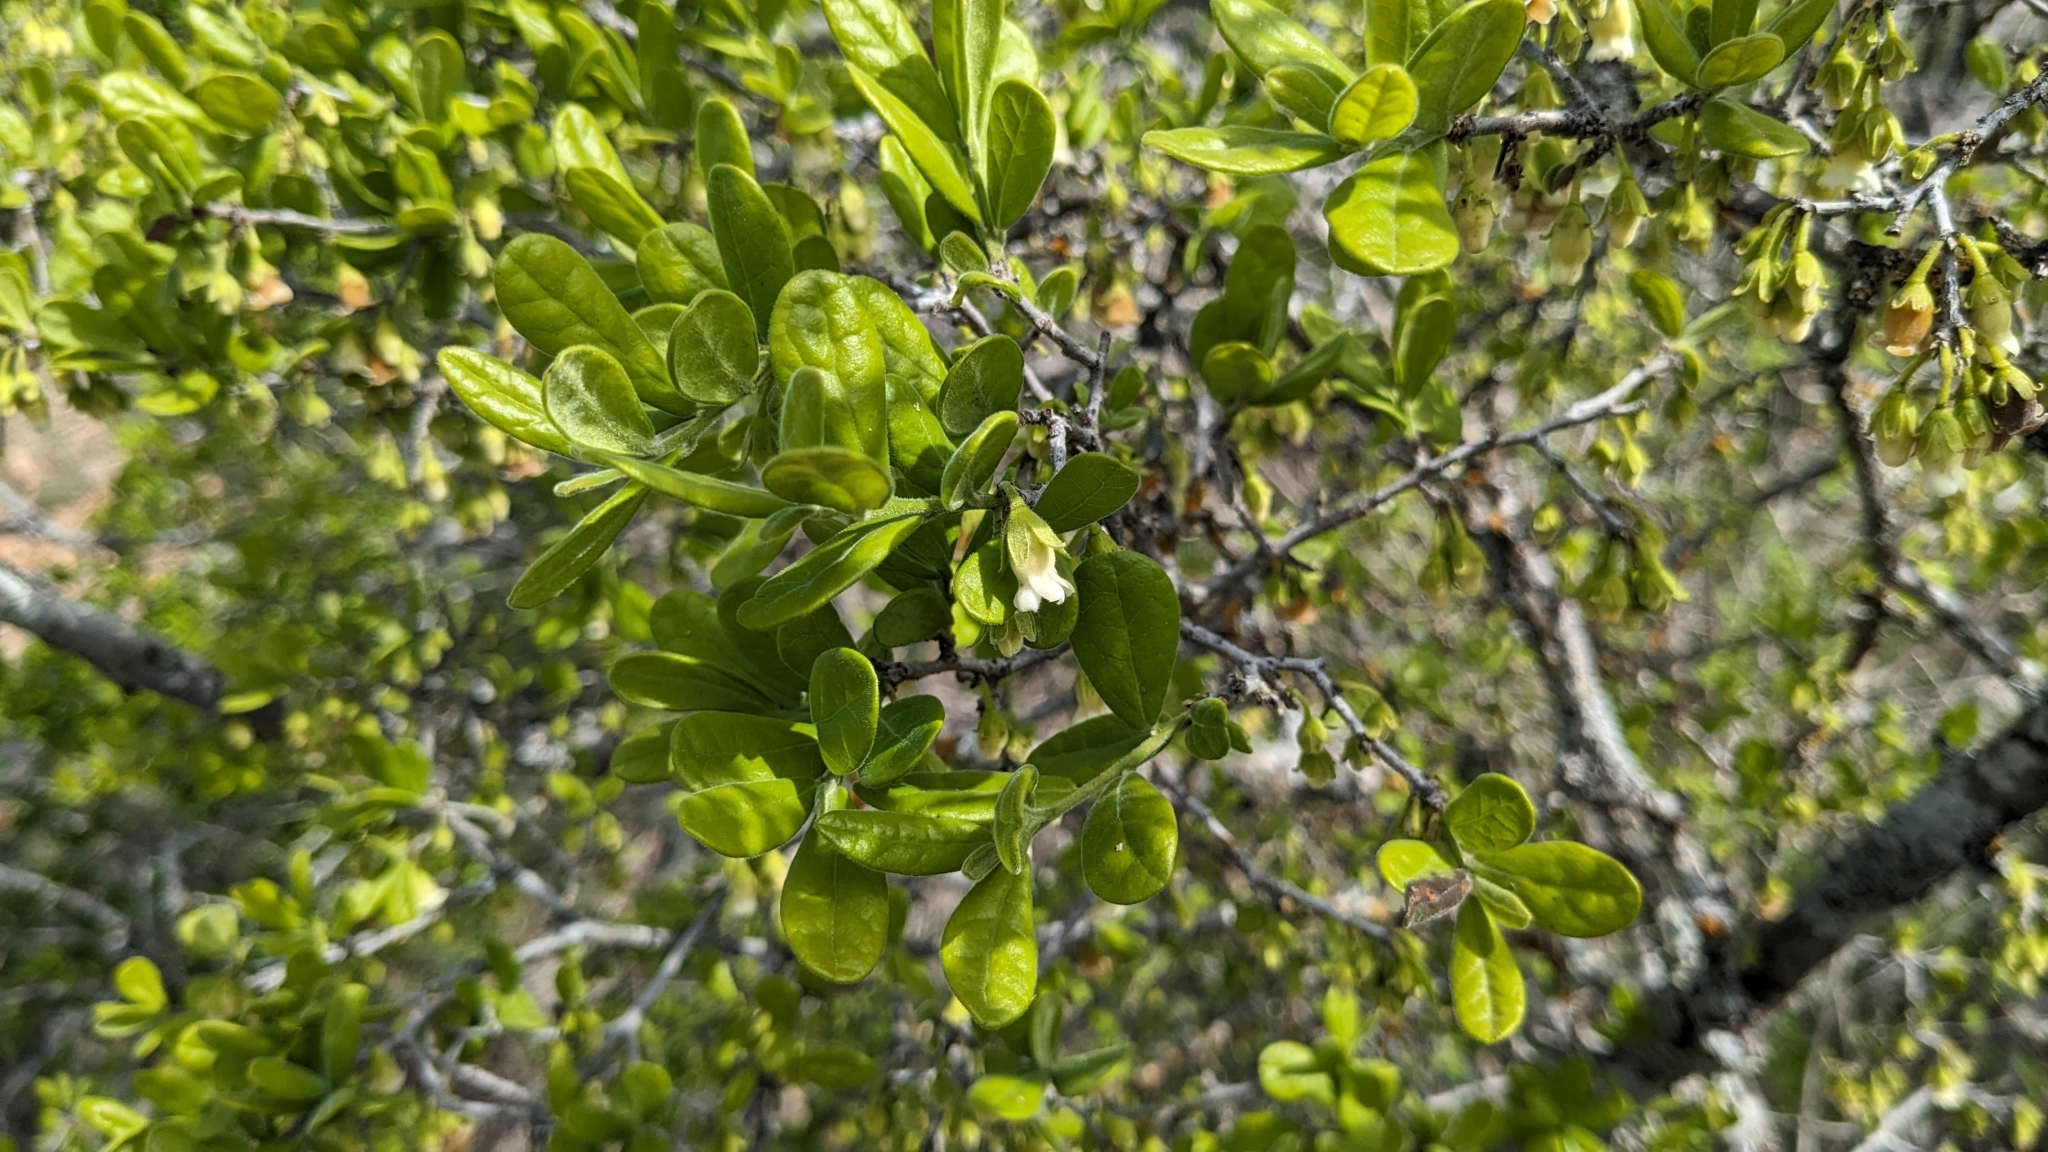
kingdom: Plantae
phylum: Tracheophyta
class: Magnoliopsida
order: Ericales
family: Ebenaceae
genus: Diospyros
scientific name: Diospyros texana
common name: Texas persimmon
